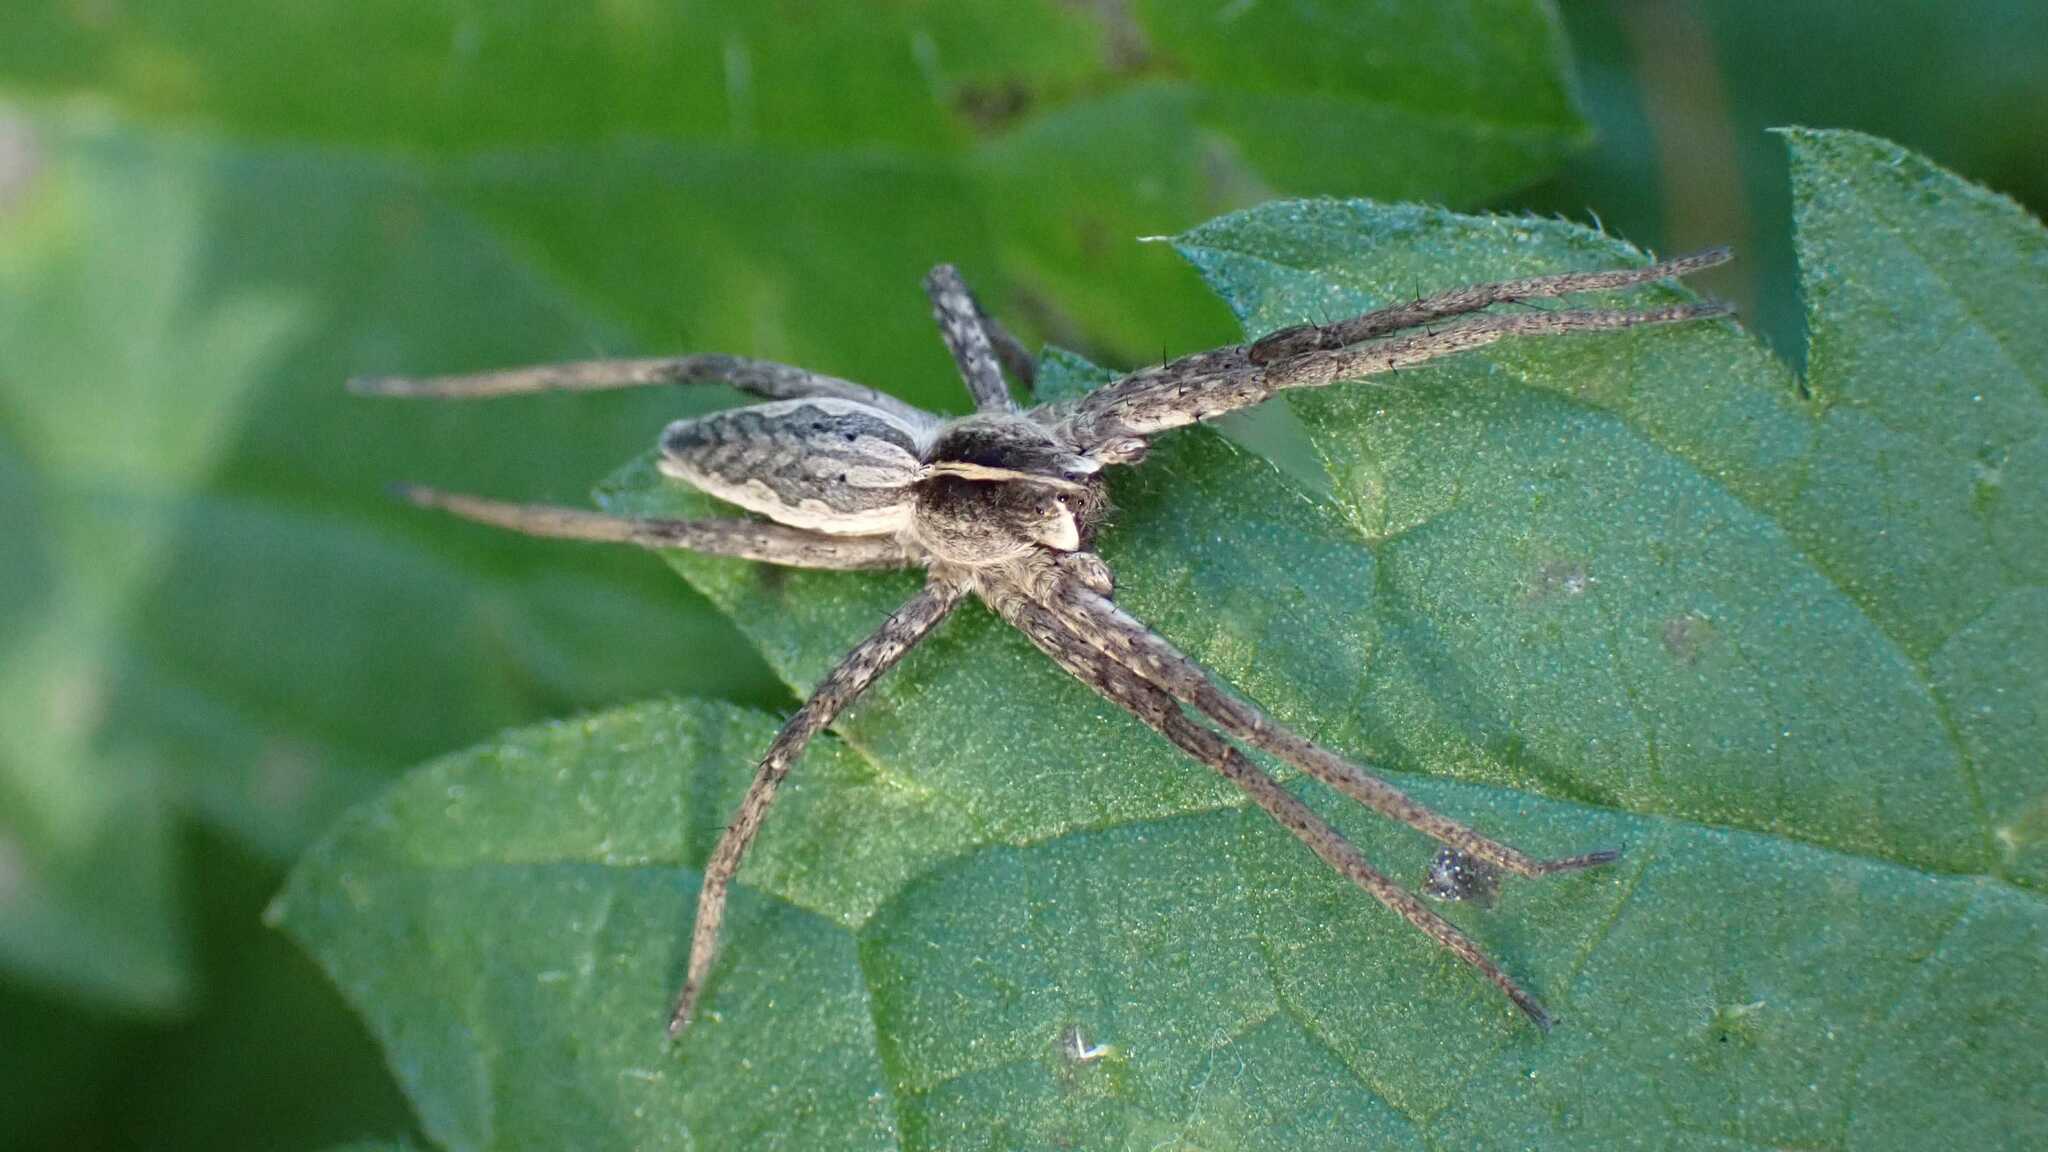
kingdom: Animalia
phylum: Arthropoda
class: Arachnida
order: Araneae
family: Pisauridae
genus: Pisaura
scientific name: Pisaura mirabilis
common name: Tent spider
